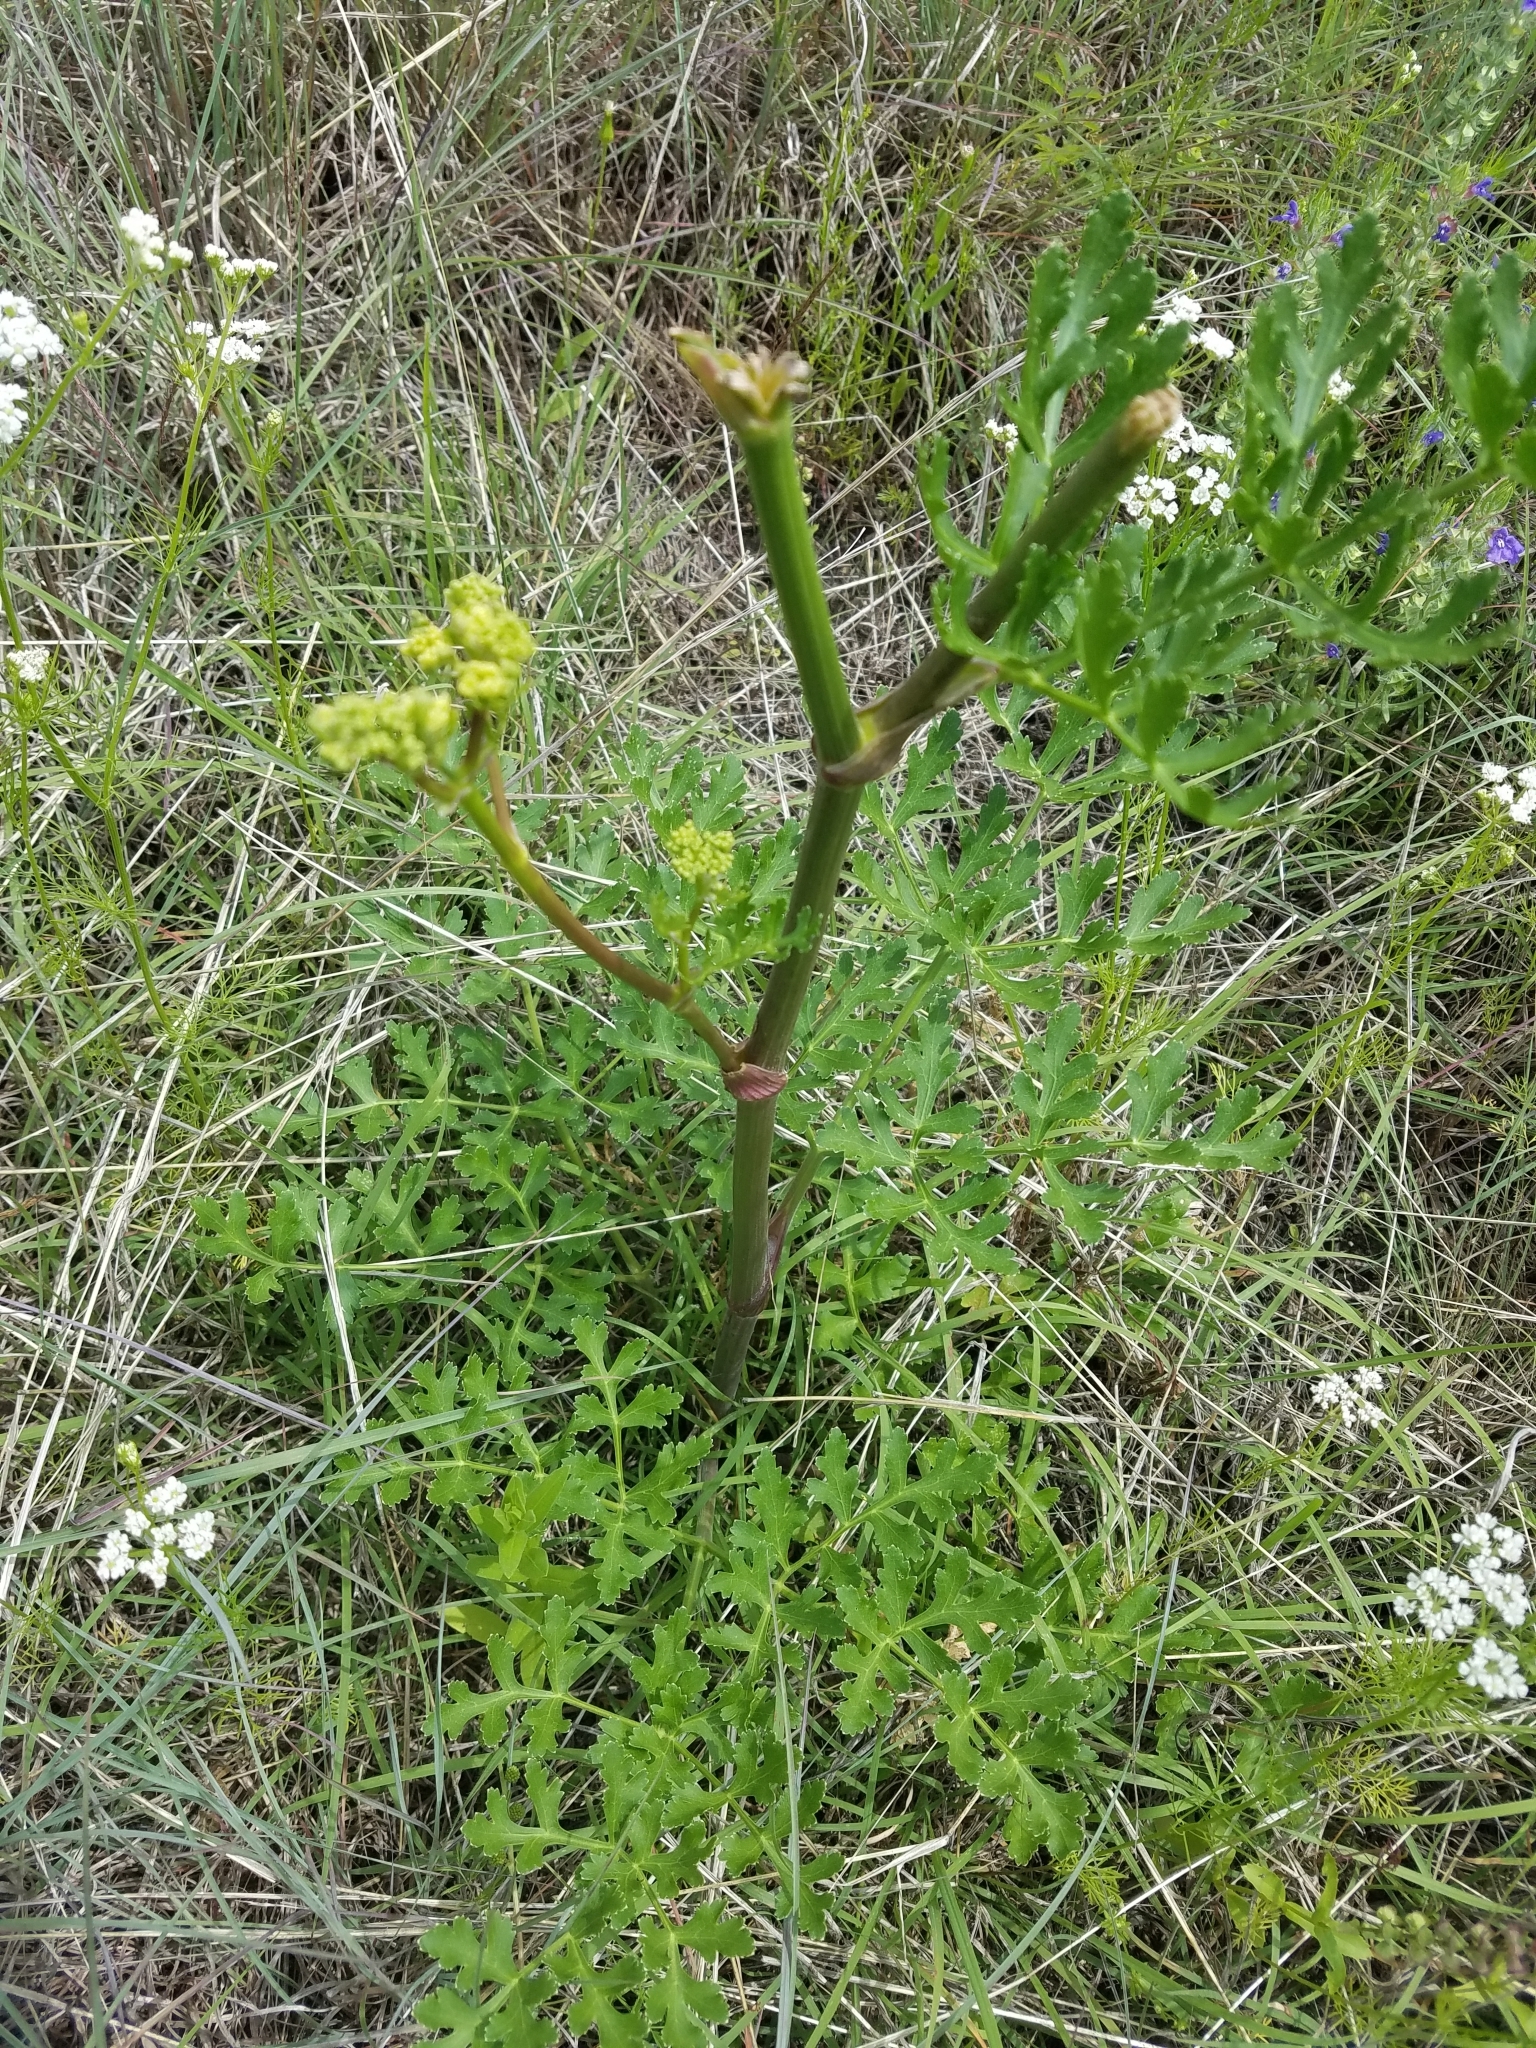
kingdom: Plantae
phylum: Tracheophyta
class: Magnoliopsida
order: Apiales
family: Apiaceae
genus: Polytaenia
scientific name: Polytaenia texana
